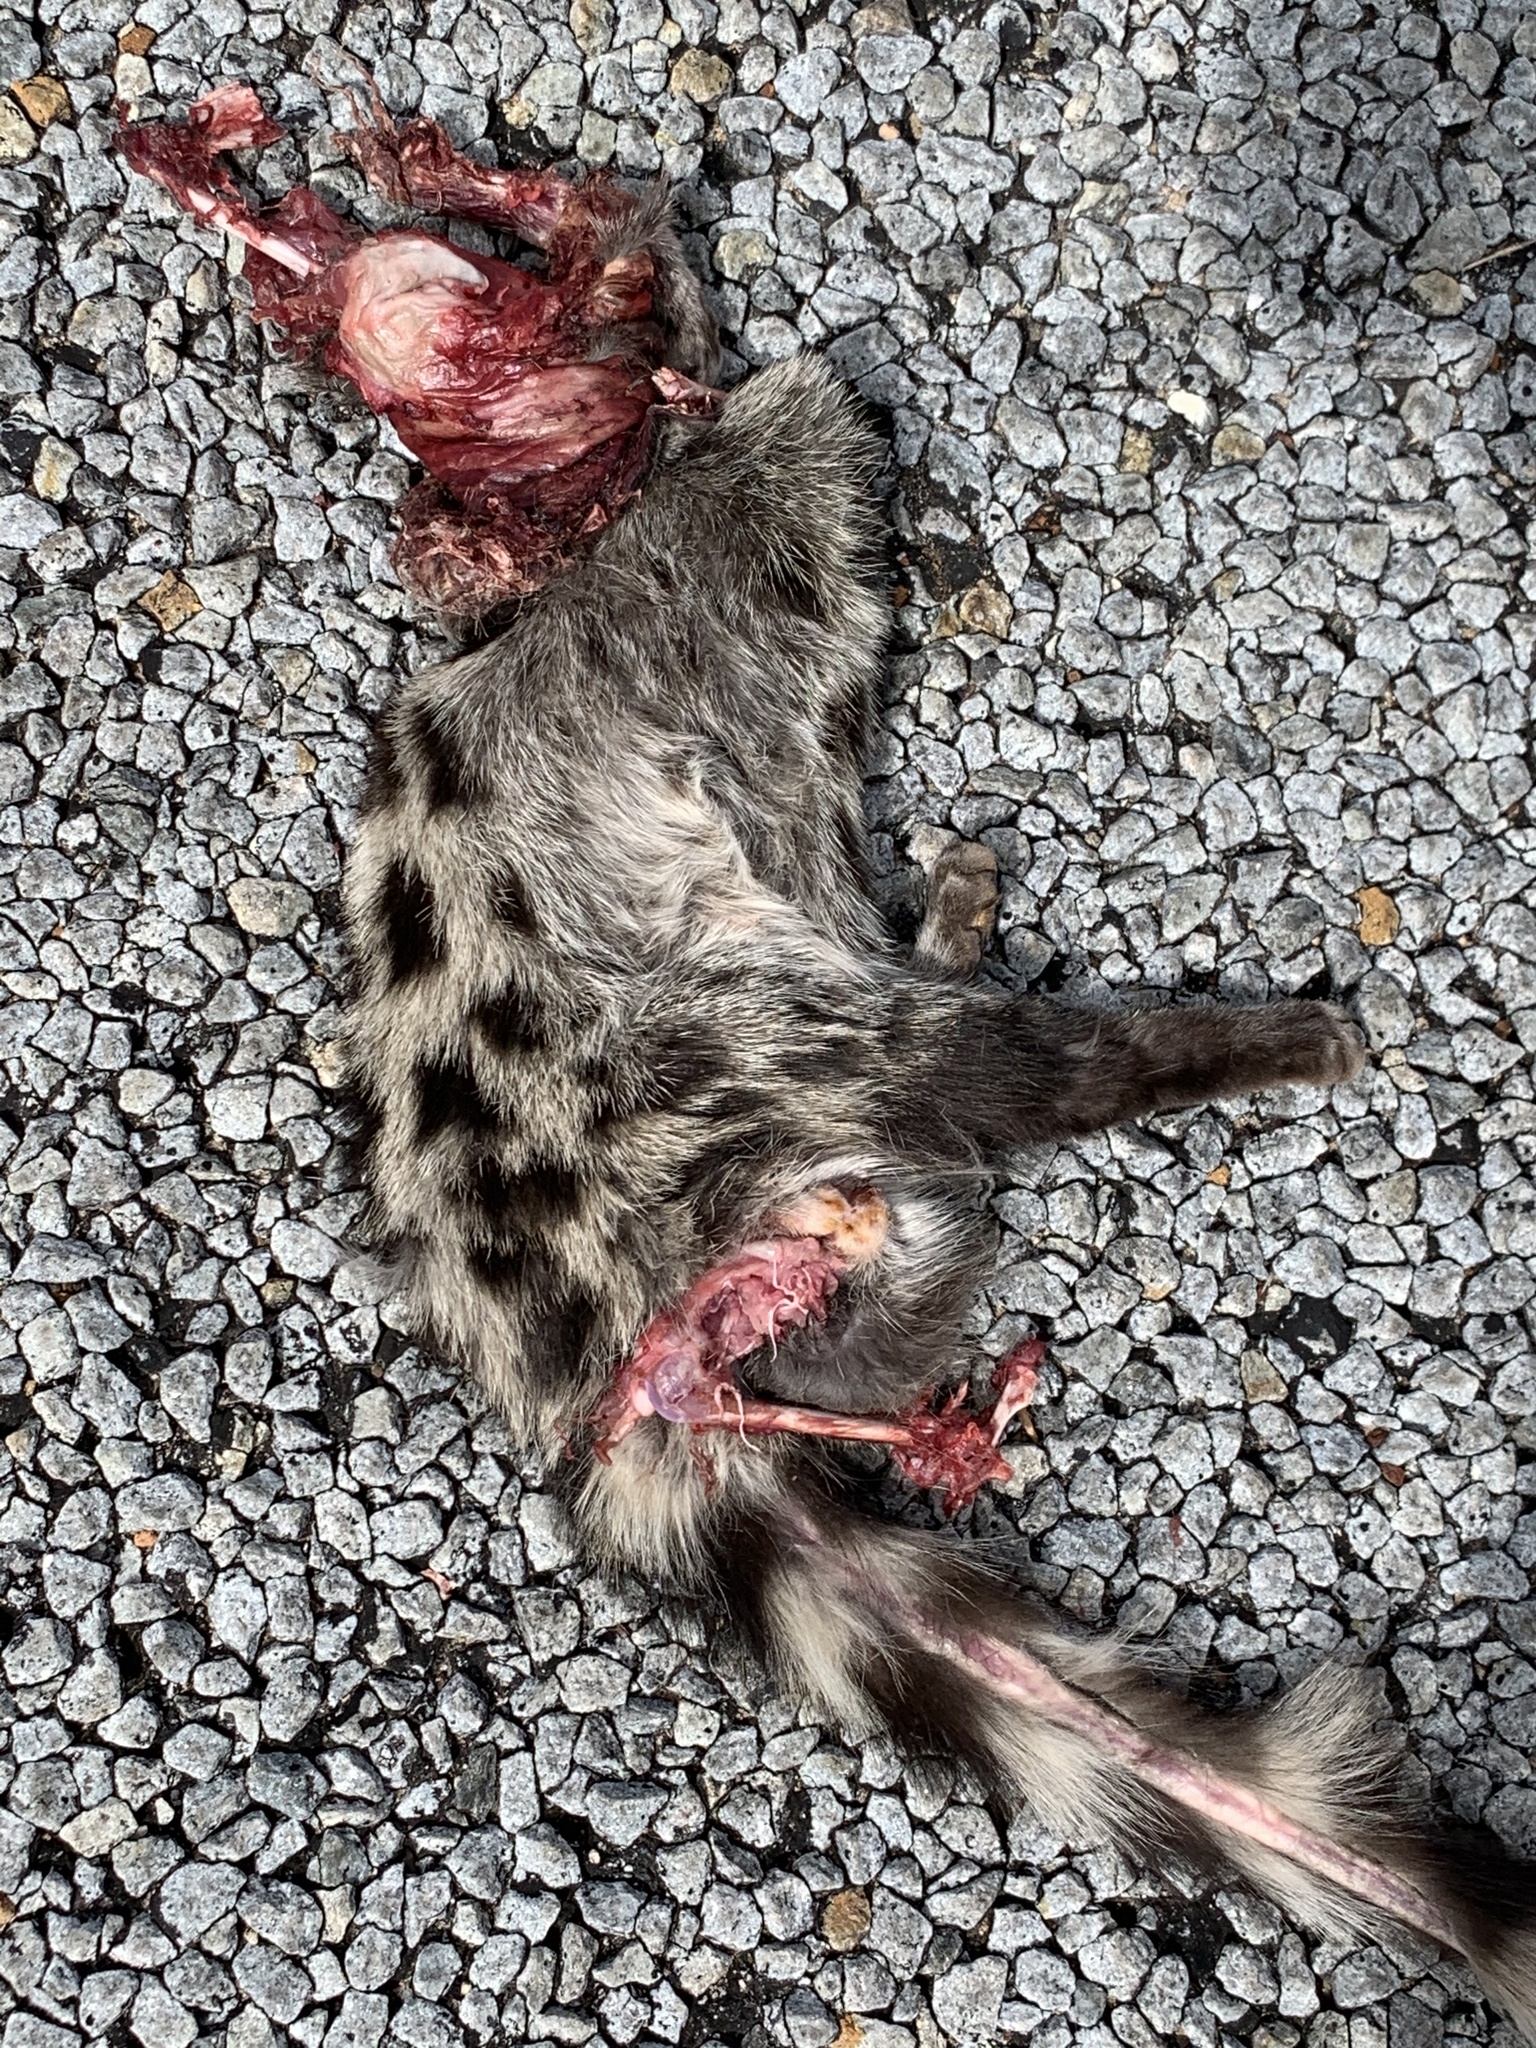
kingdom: Animalia
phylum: Chordata
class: Mammalia
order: Carnivora
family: Viverridae
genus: Genetta
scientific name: Genetta tigrina
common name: Cape genet
